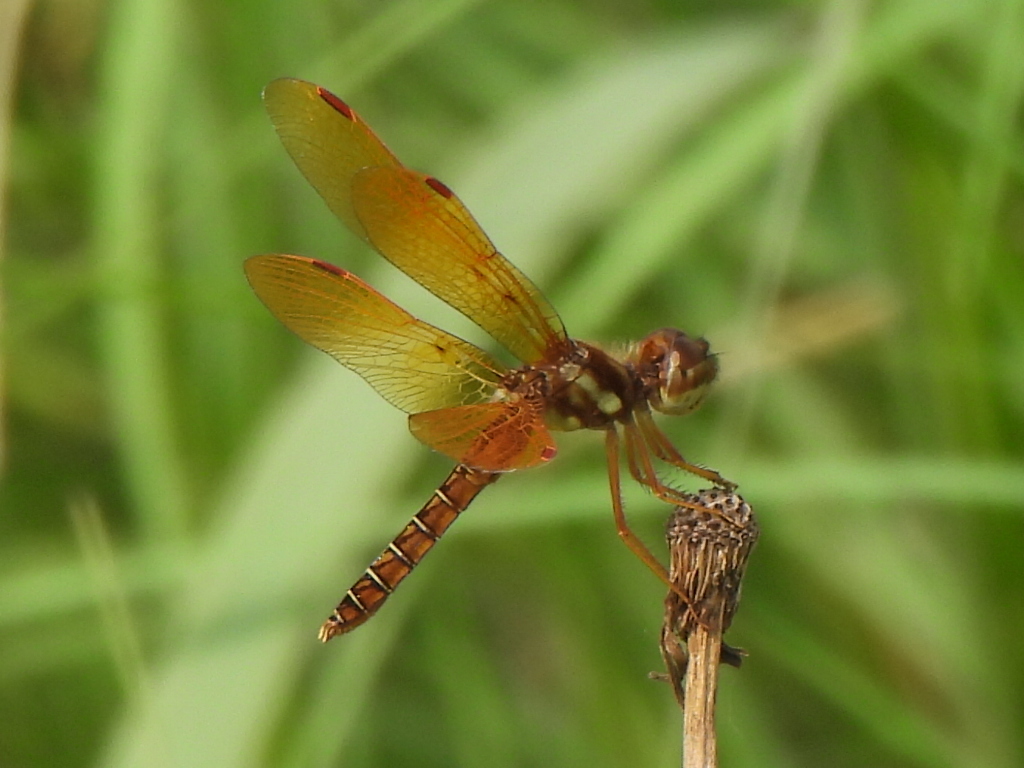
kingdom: Animalia
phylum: Arthropoda
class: Insecta
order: Odonata
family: Libellulidae
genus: Perithemis
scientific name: Perithemis tenera
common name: Eastern amberwing
